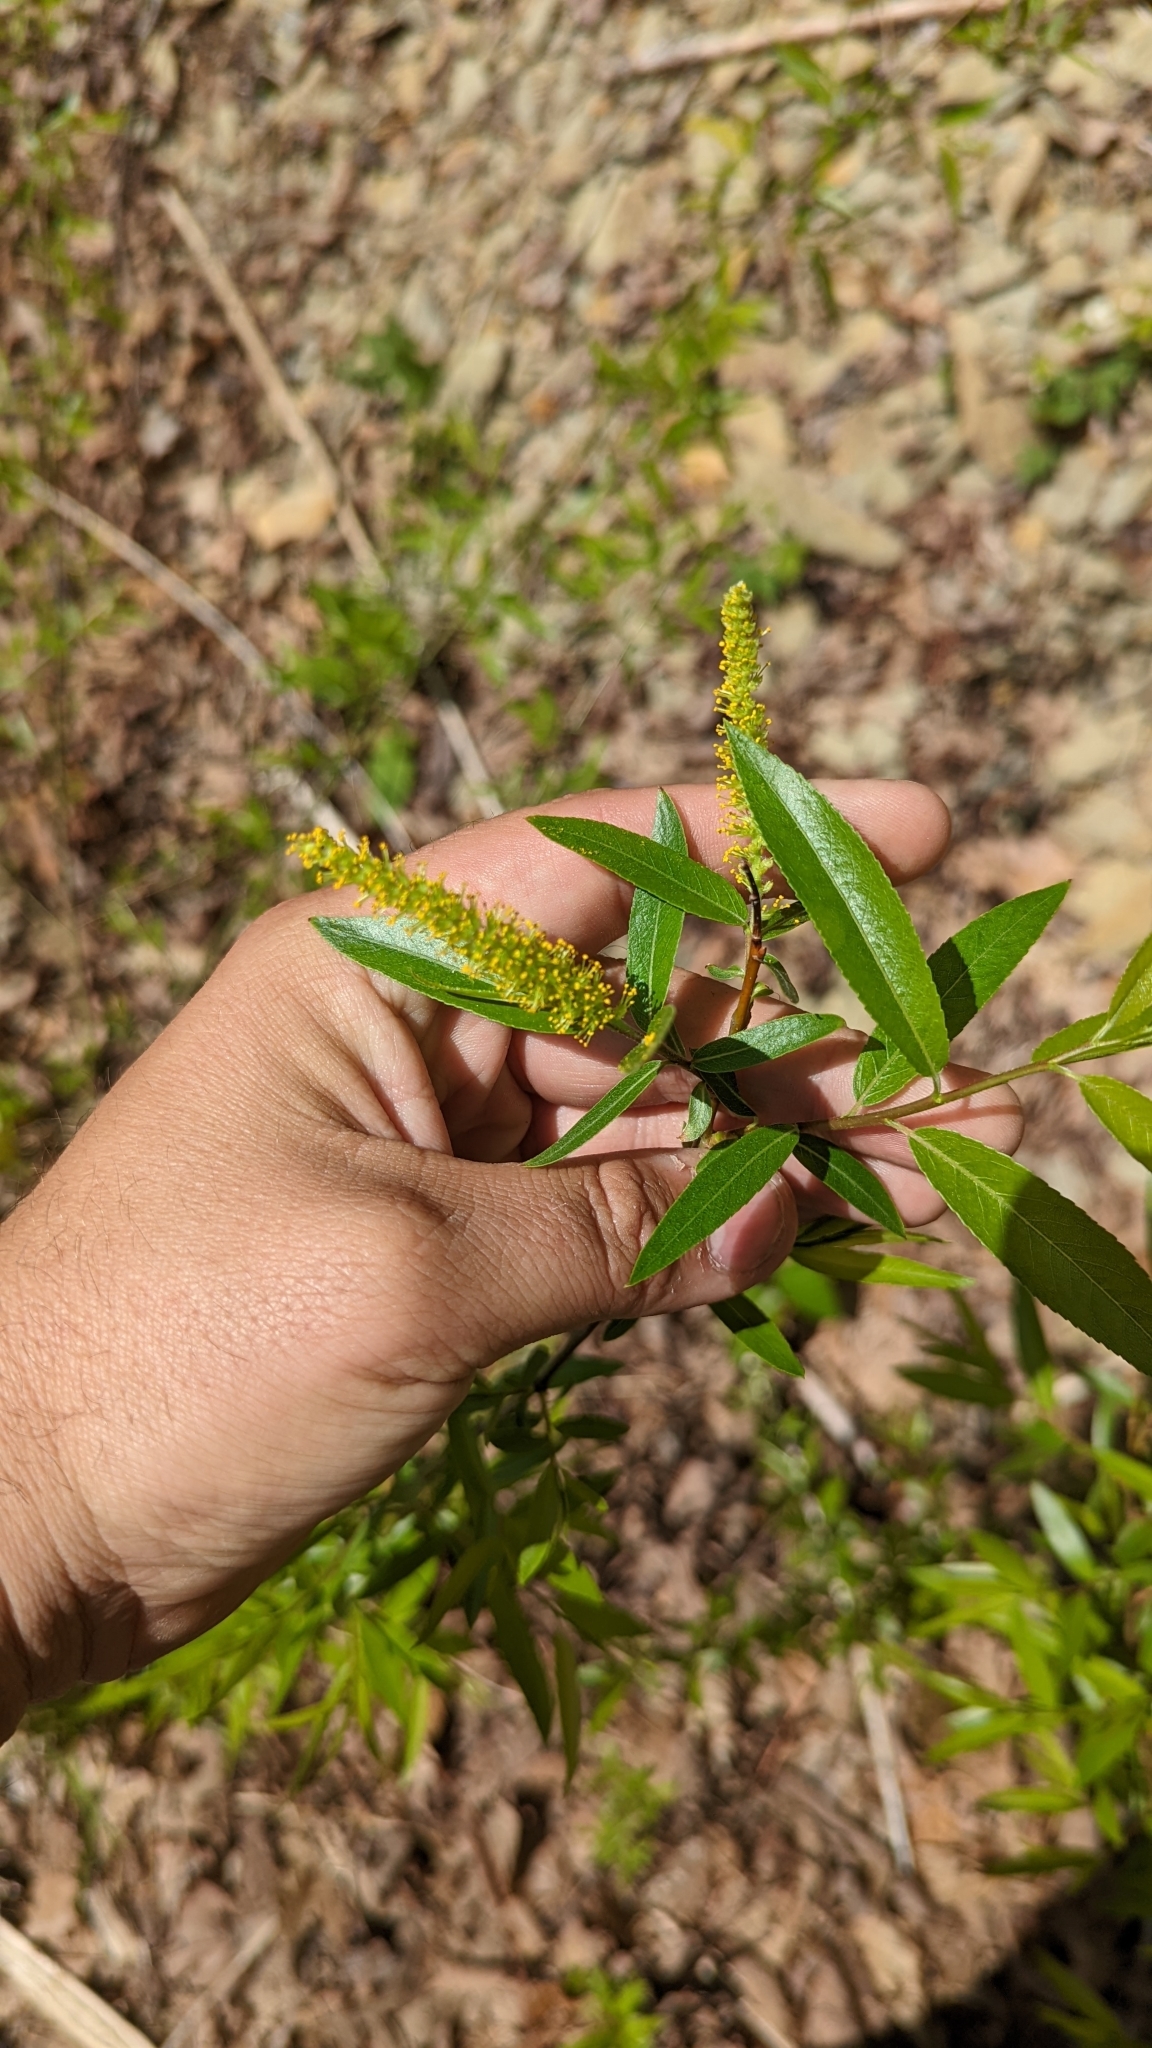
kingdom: Plantae
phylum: Tracheophyta
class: Magnoliopsida
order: Malpighiales
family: Salicaceae
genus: Salix
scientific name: Salix nigra
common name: Black willow
